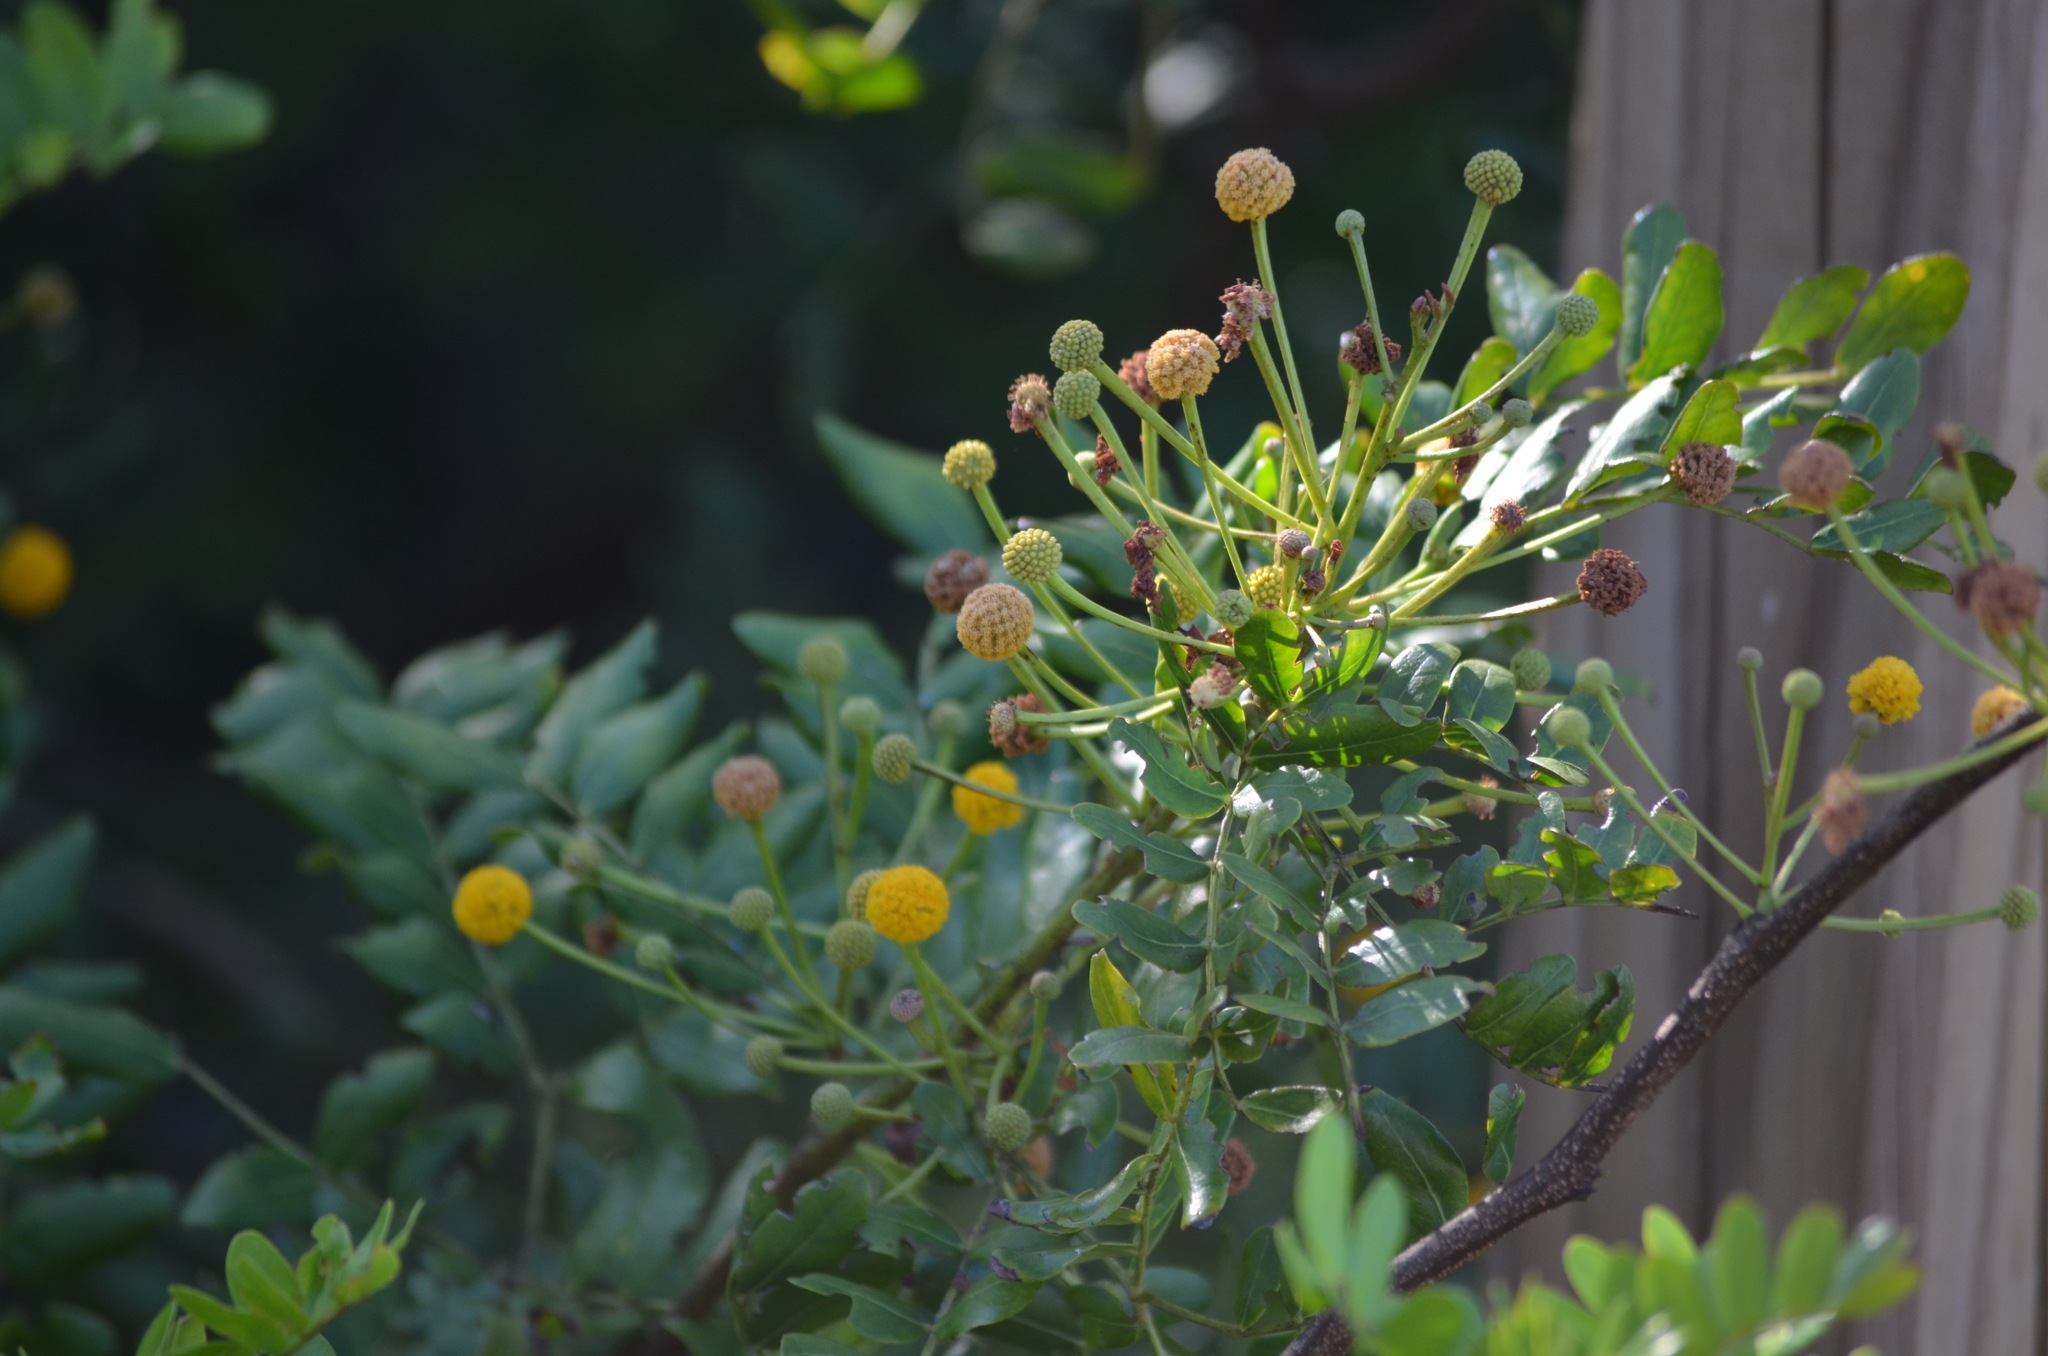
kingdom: Plantae
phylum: Tracheophyta
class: Magnoliopsida
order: Fabales
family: Fabaceae
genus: Vachellia
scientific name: Vachellia choriophylla
